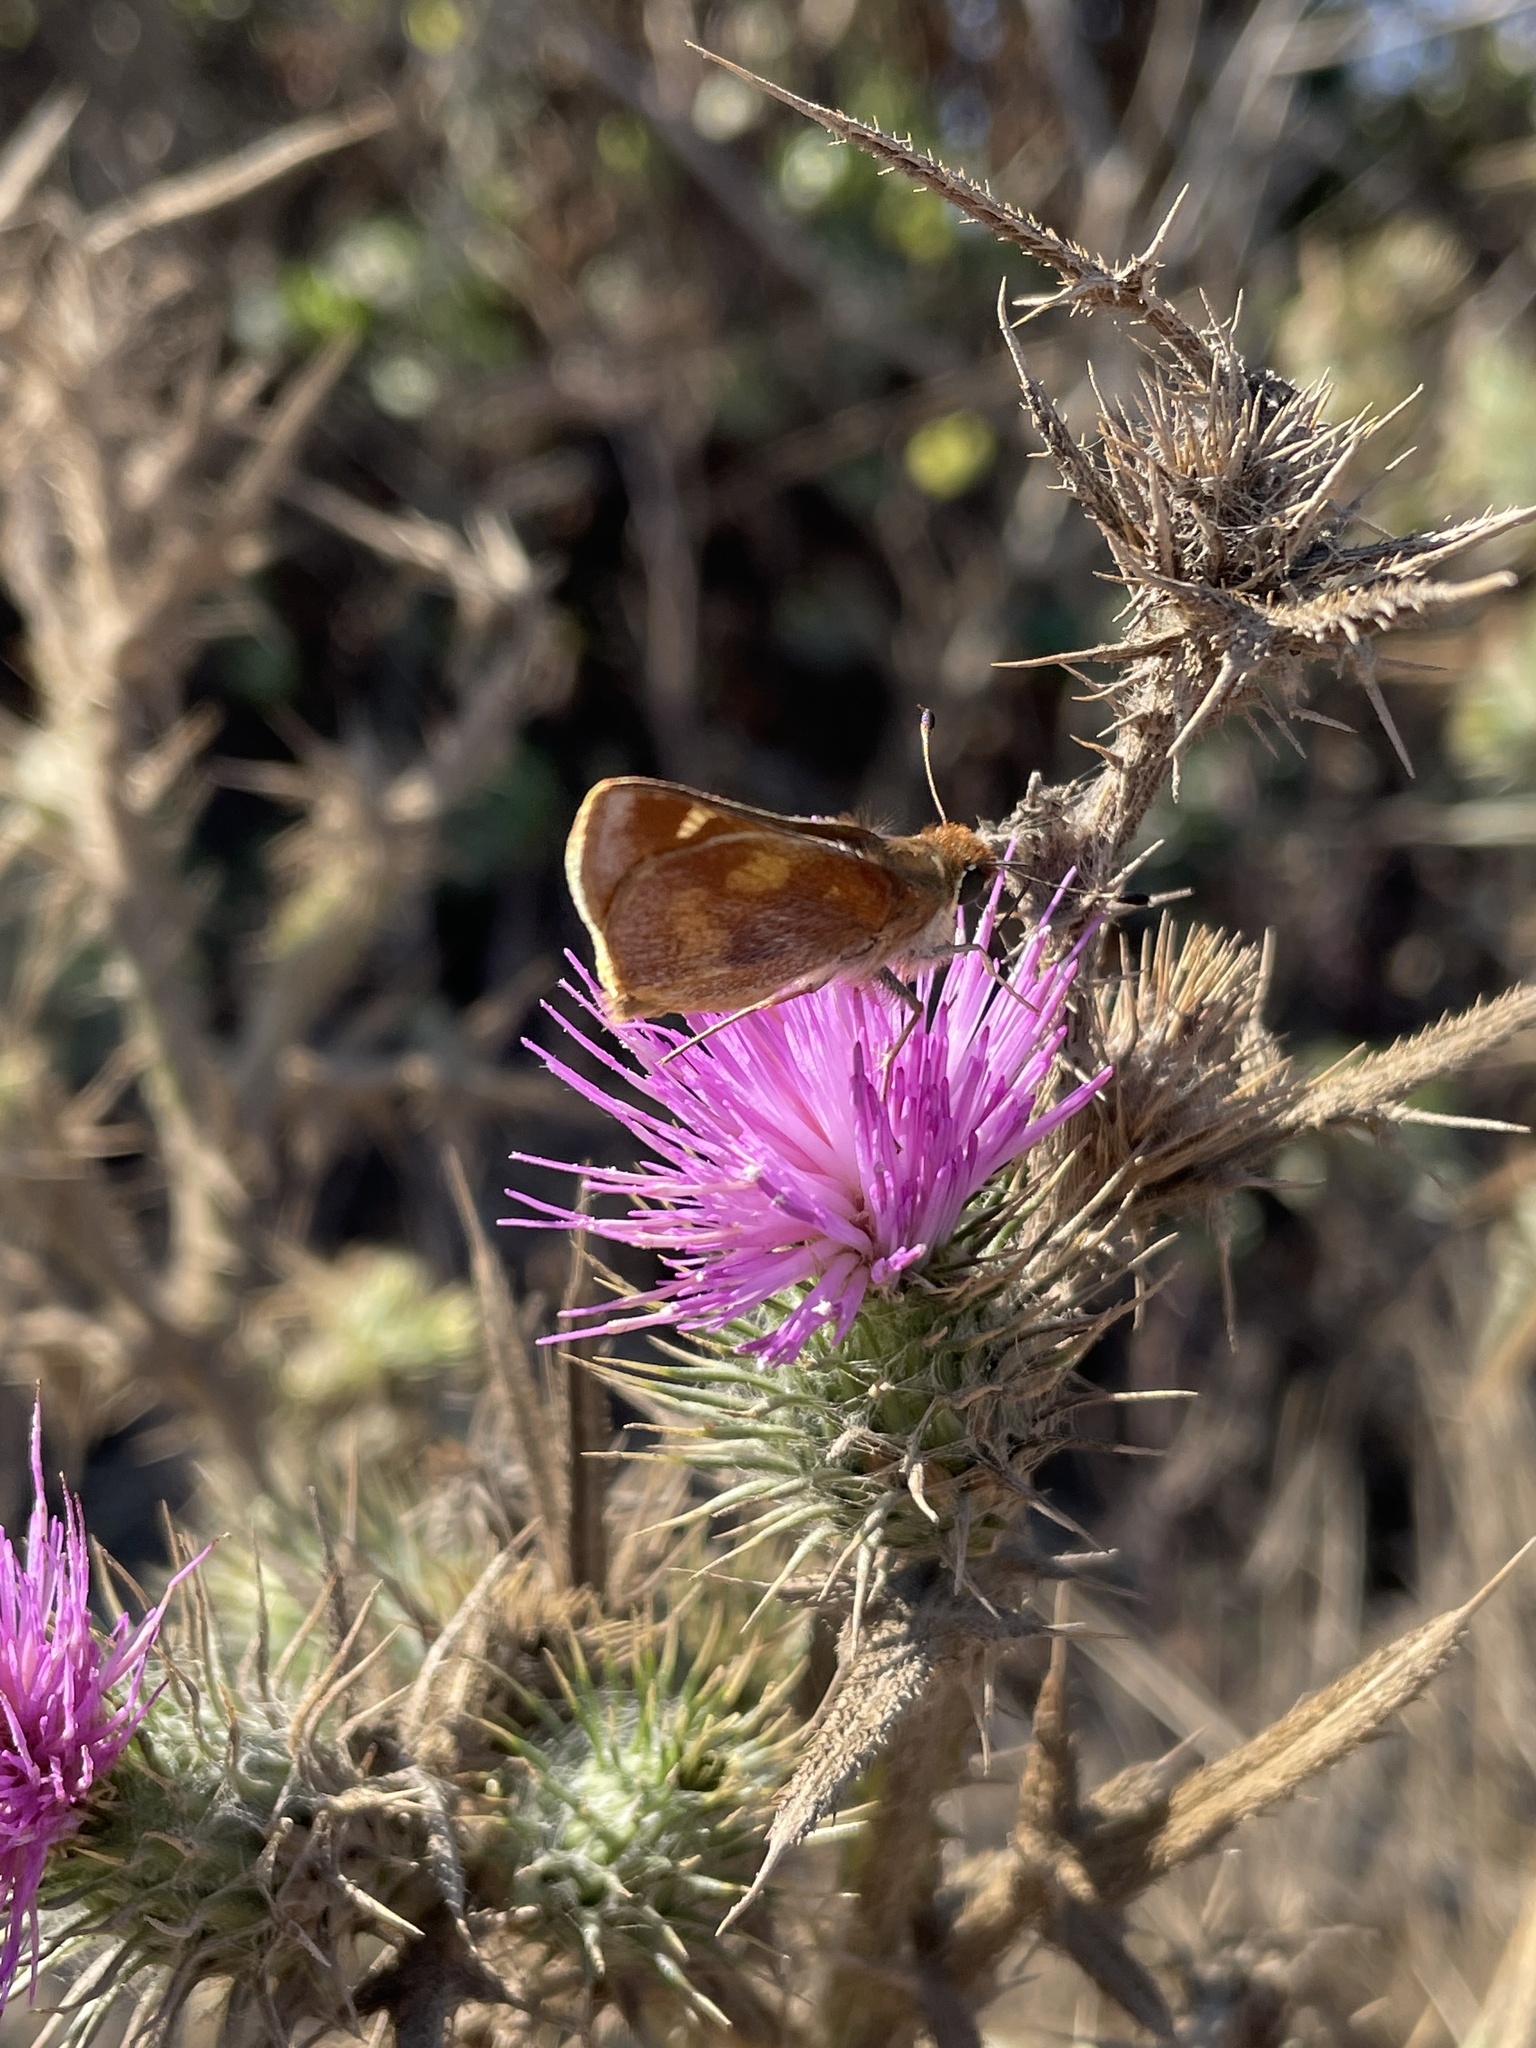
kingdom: Animalia
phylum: Arthropoda
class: Insecta
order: Lepidoptera
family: Hesperiidae
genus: Lon
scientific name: Lon melane
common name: Umber skipper
